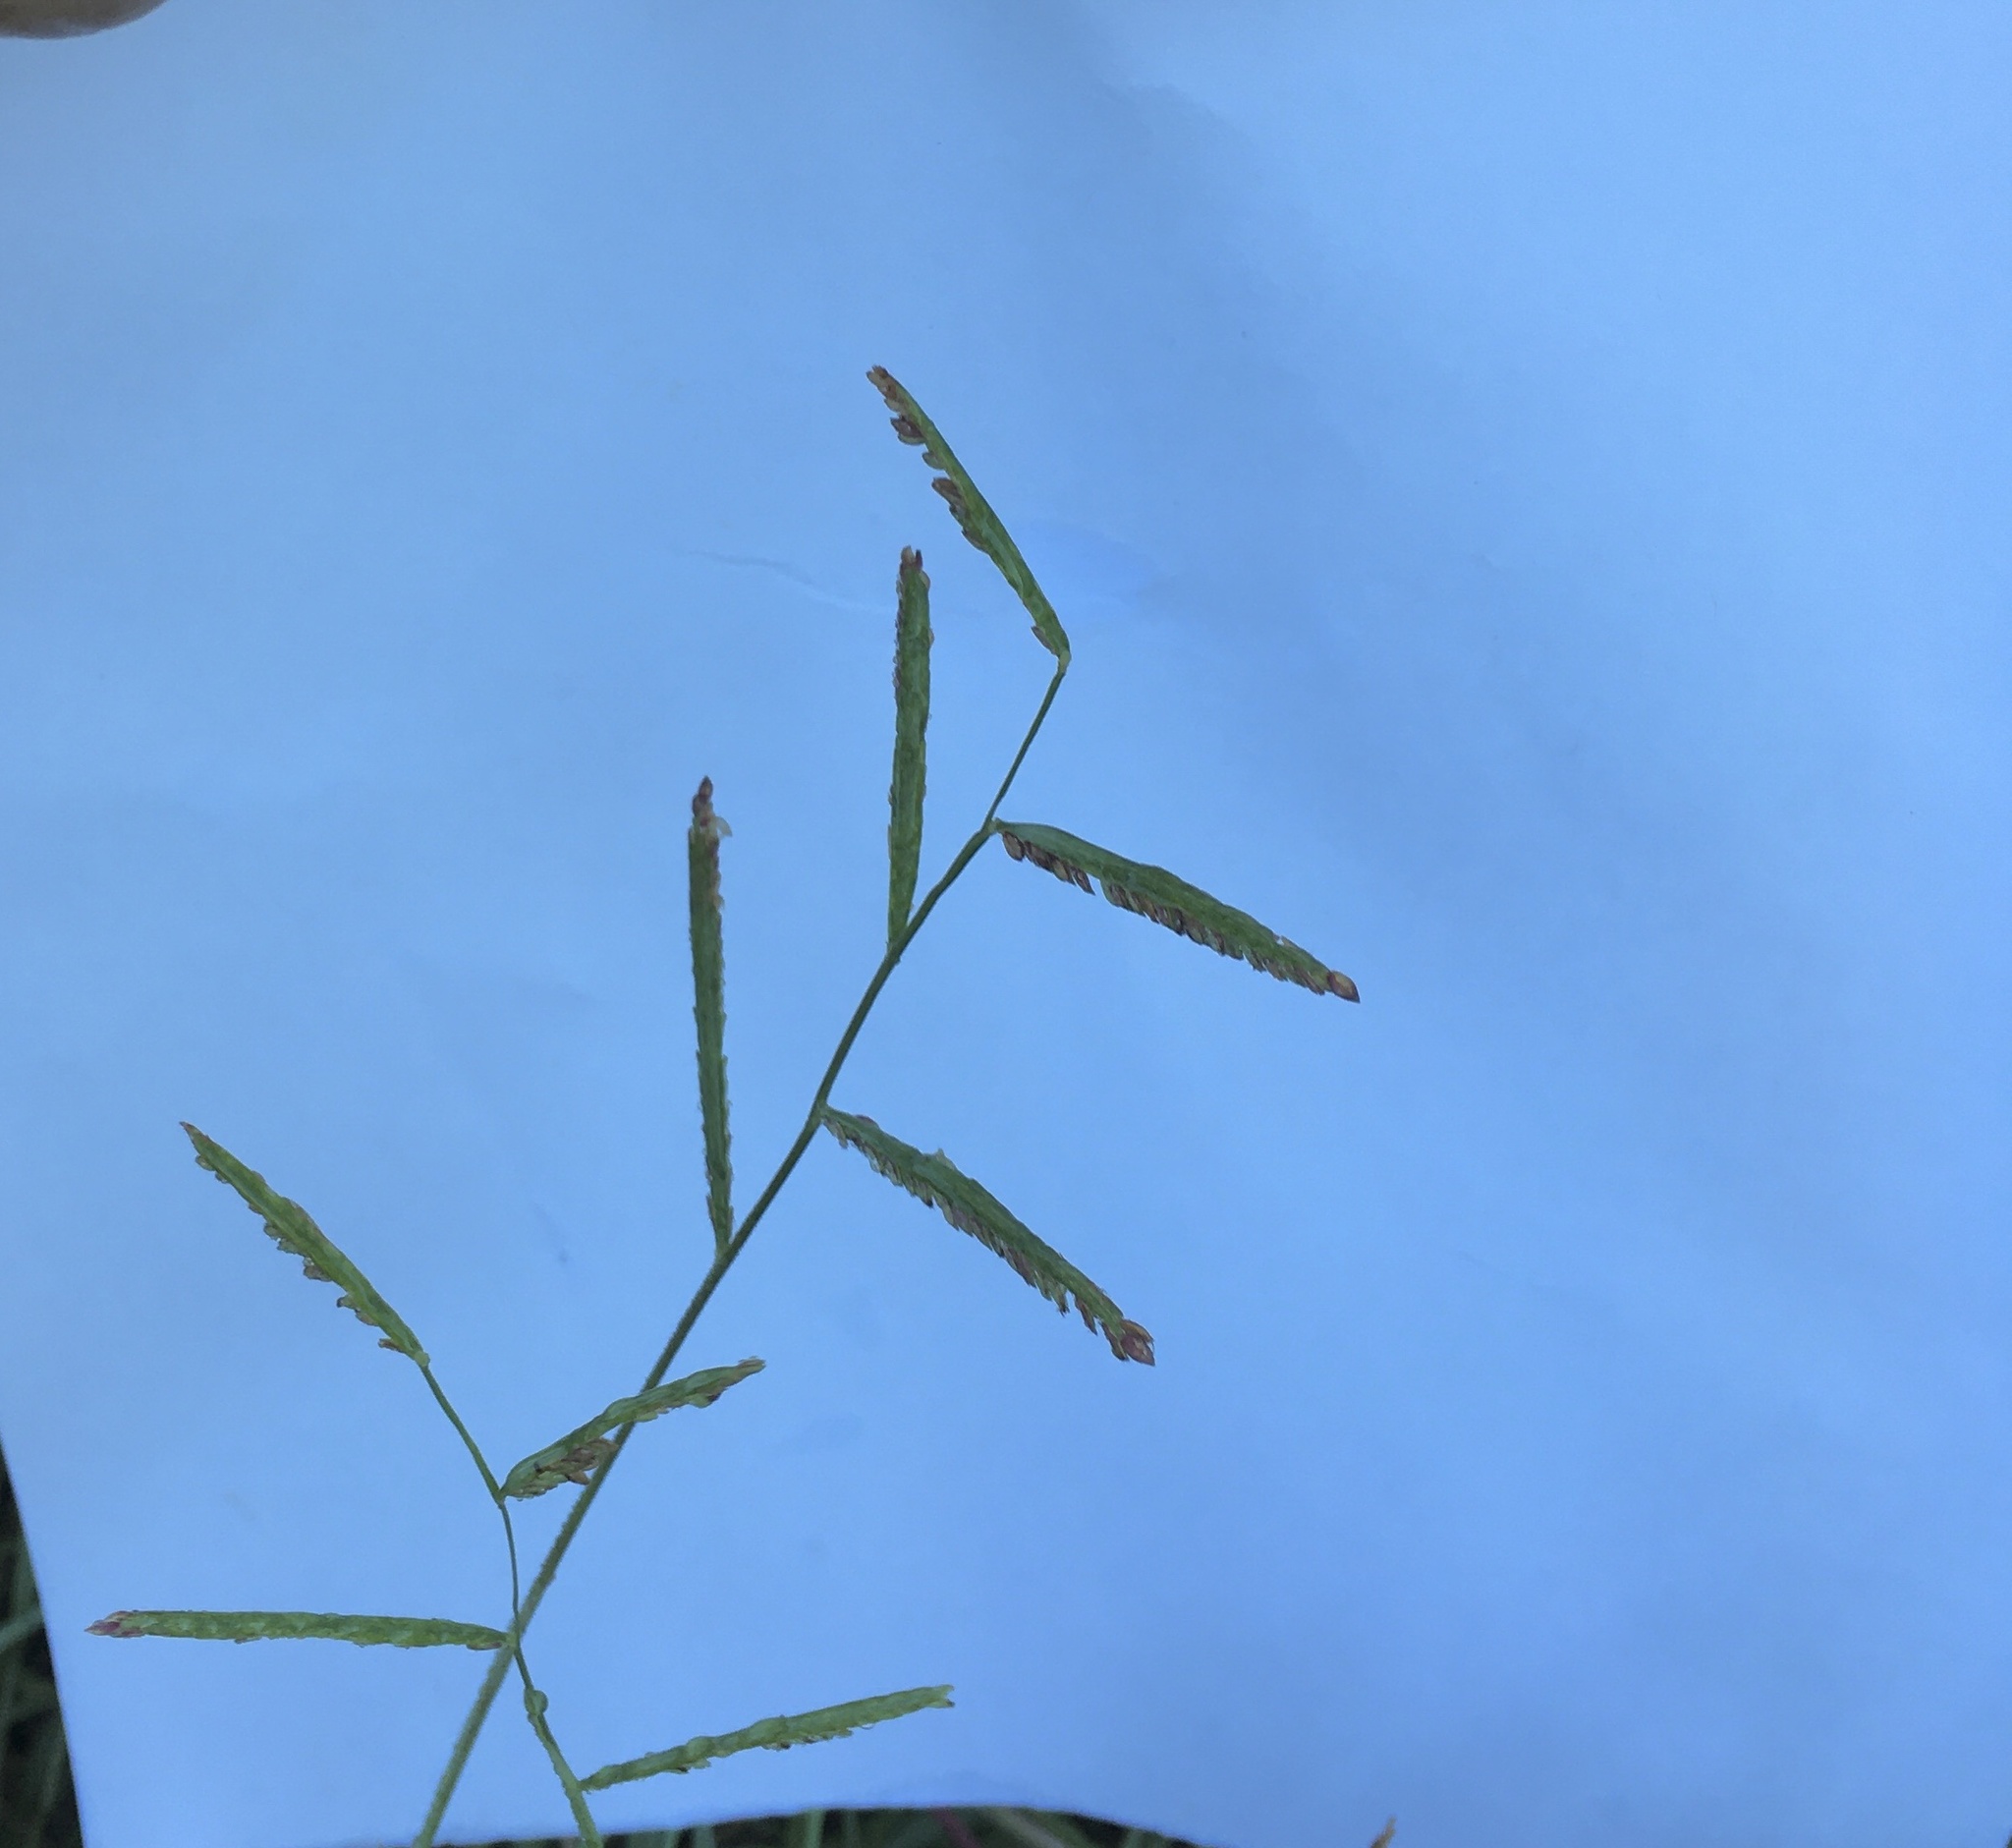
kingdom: Plantae
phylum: Tracheophyta
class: Liliopsida
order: Poales
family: Poaceae
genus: Paspalum
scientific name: Paspalum denticulatum
